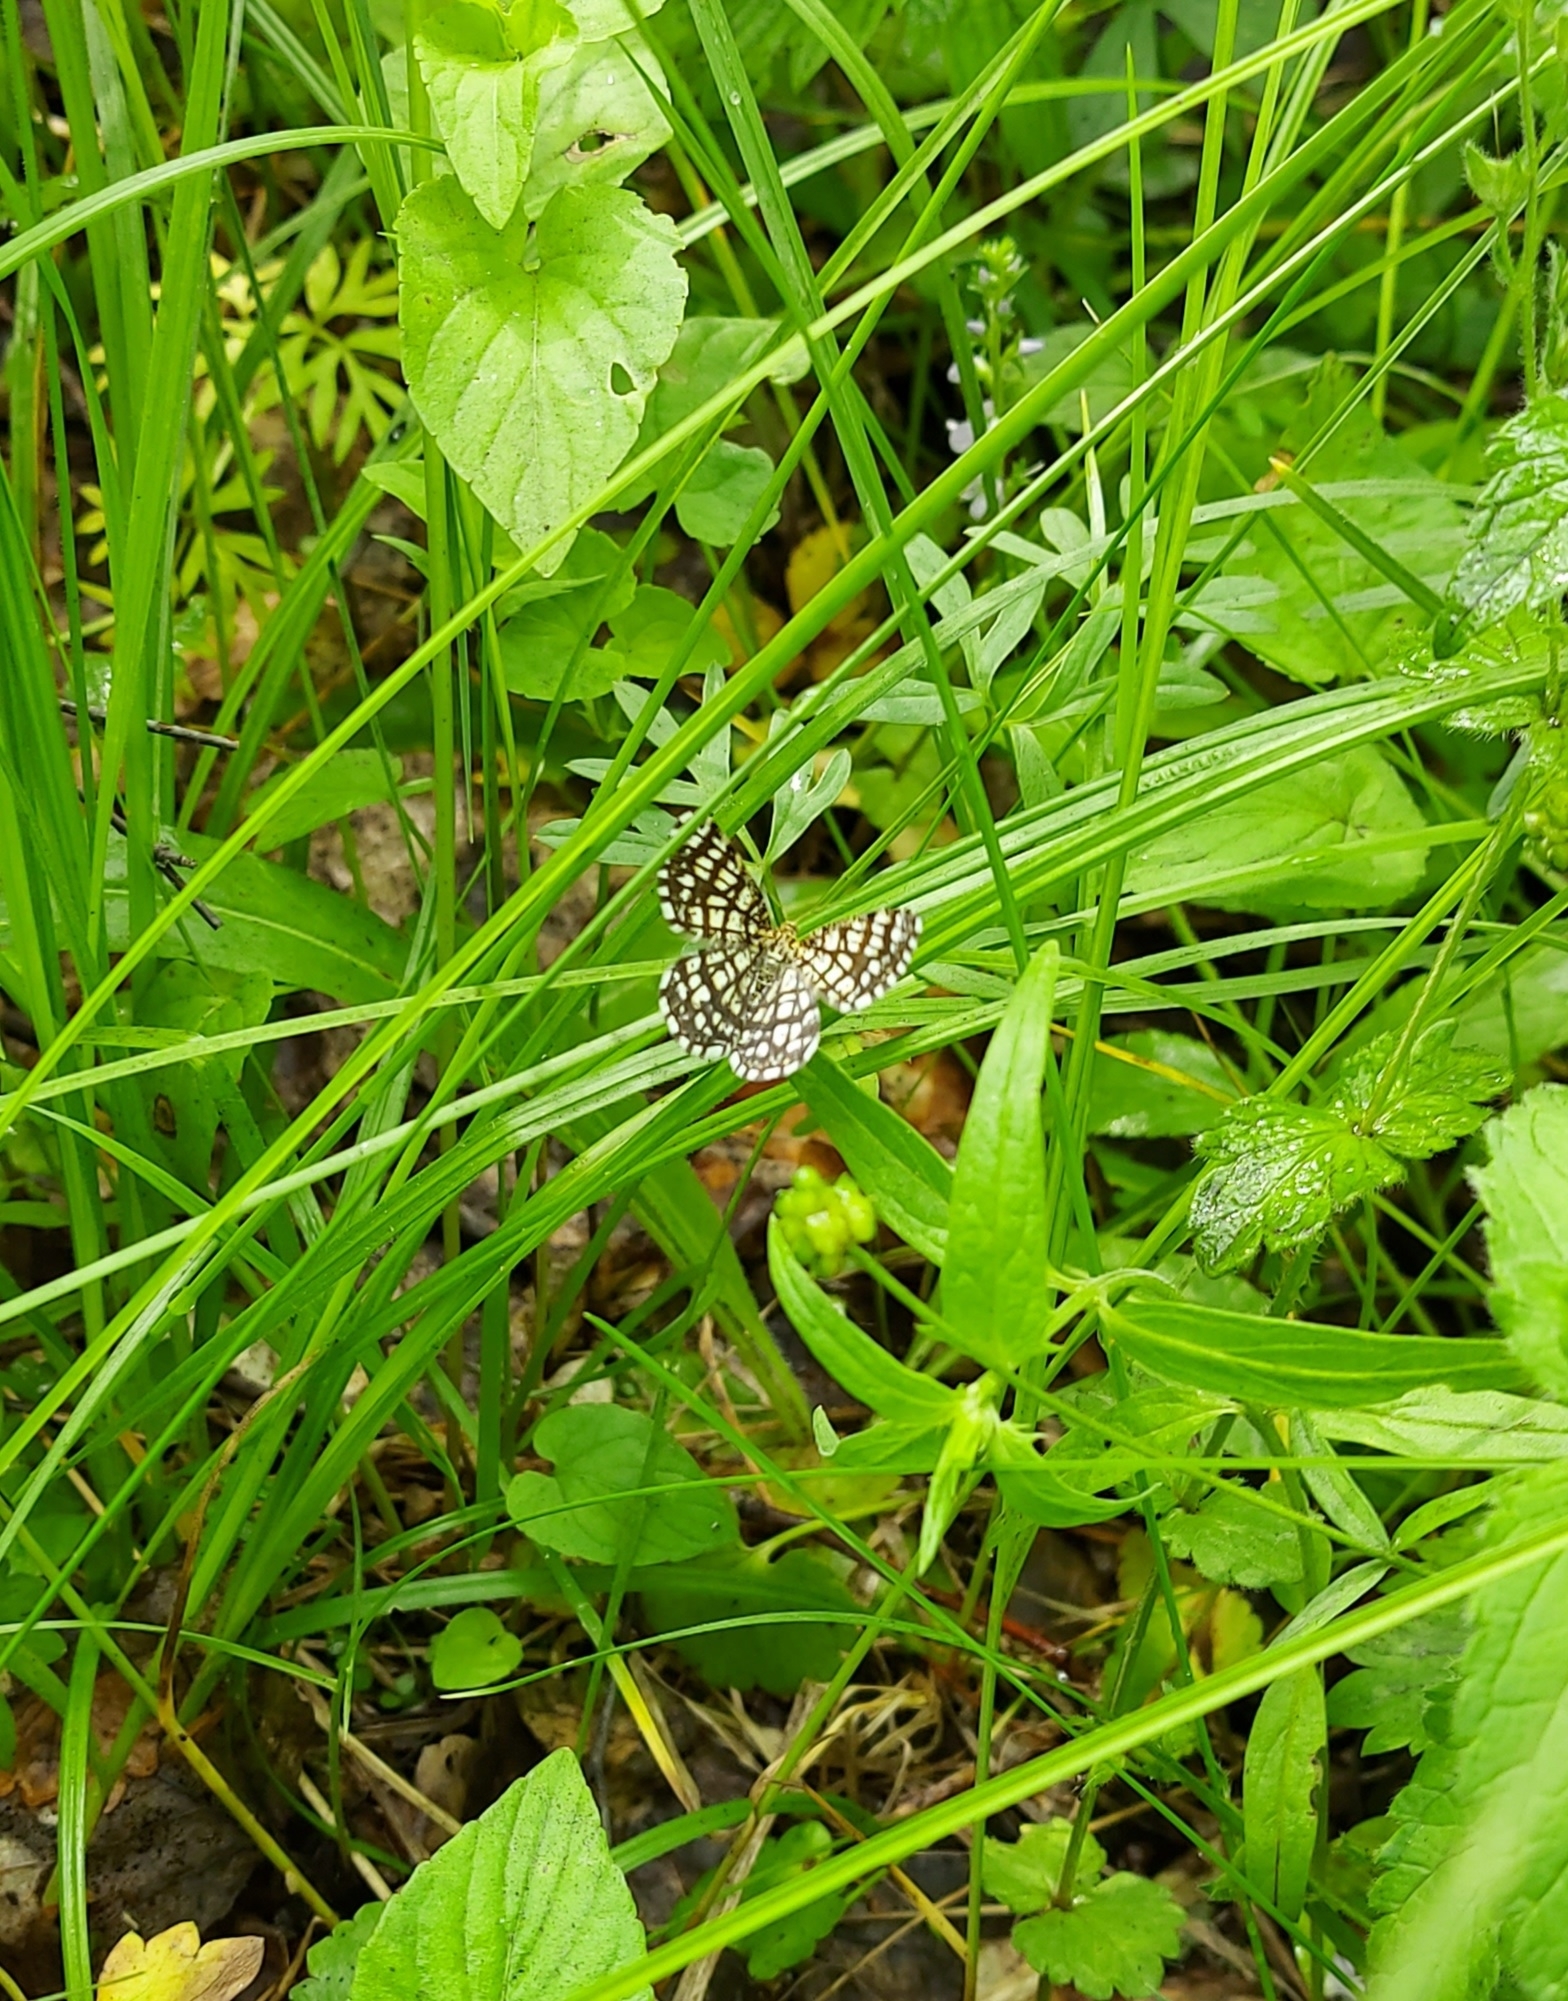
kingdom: Animalia
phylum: Arthropoda
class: Insecta
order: Lepidoptera
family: Geometridae
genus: Chiasmia
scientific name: Chiasmia clathrata
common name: Latticed heath
